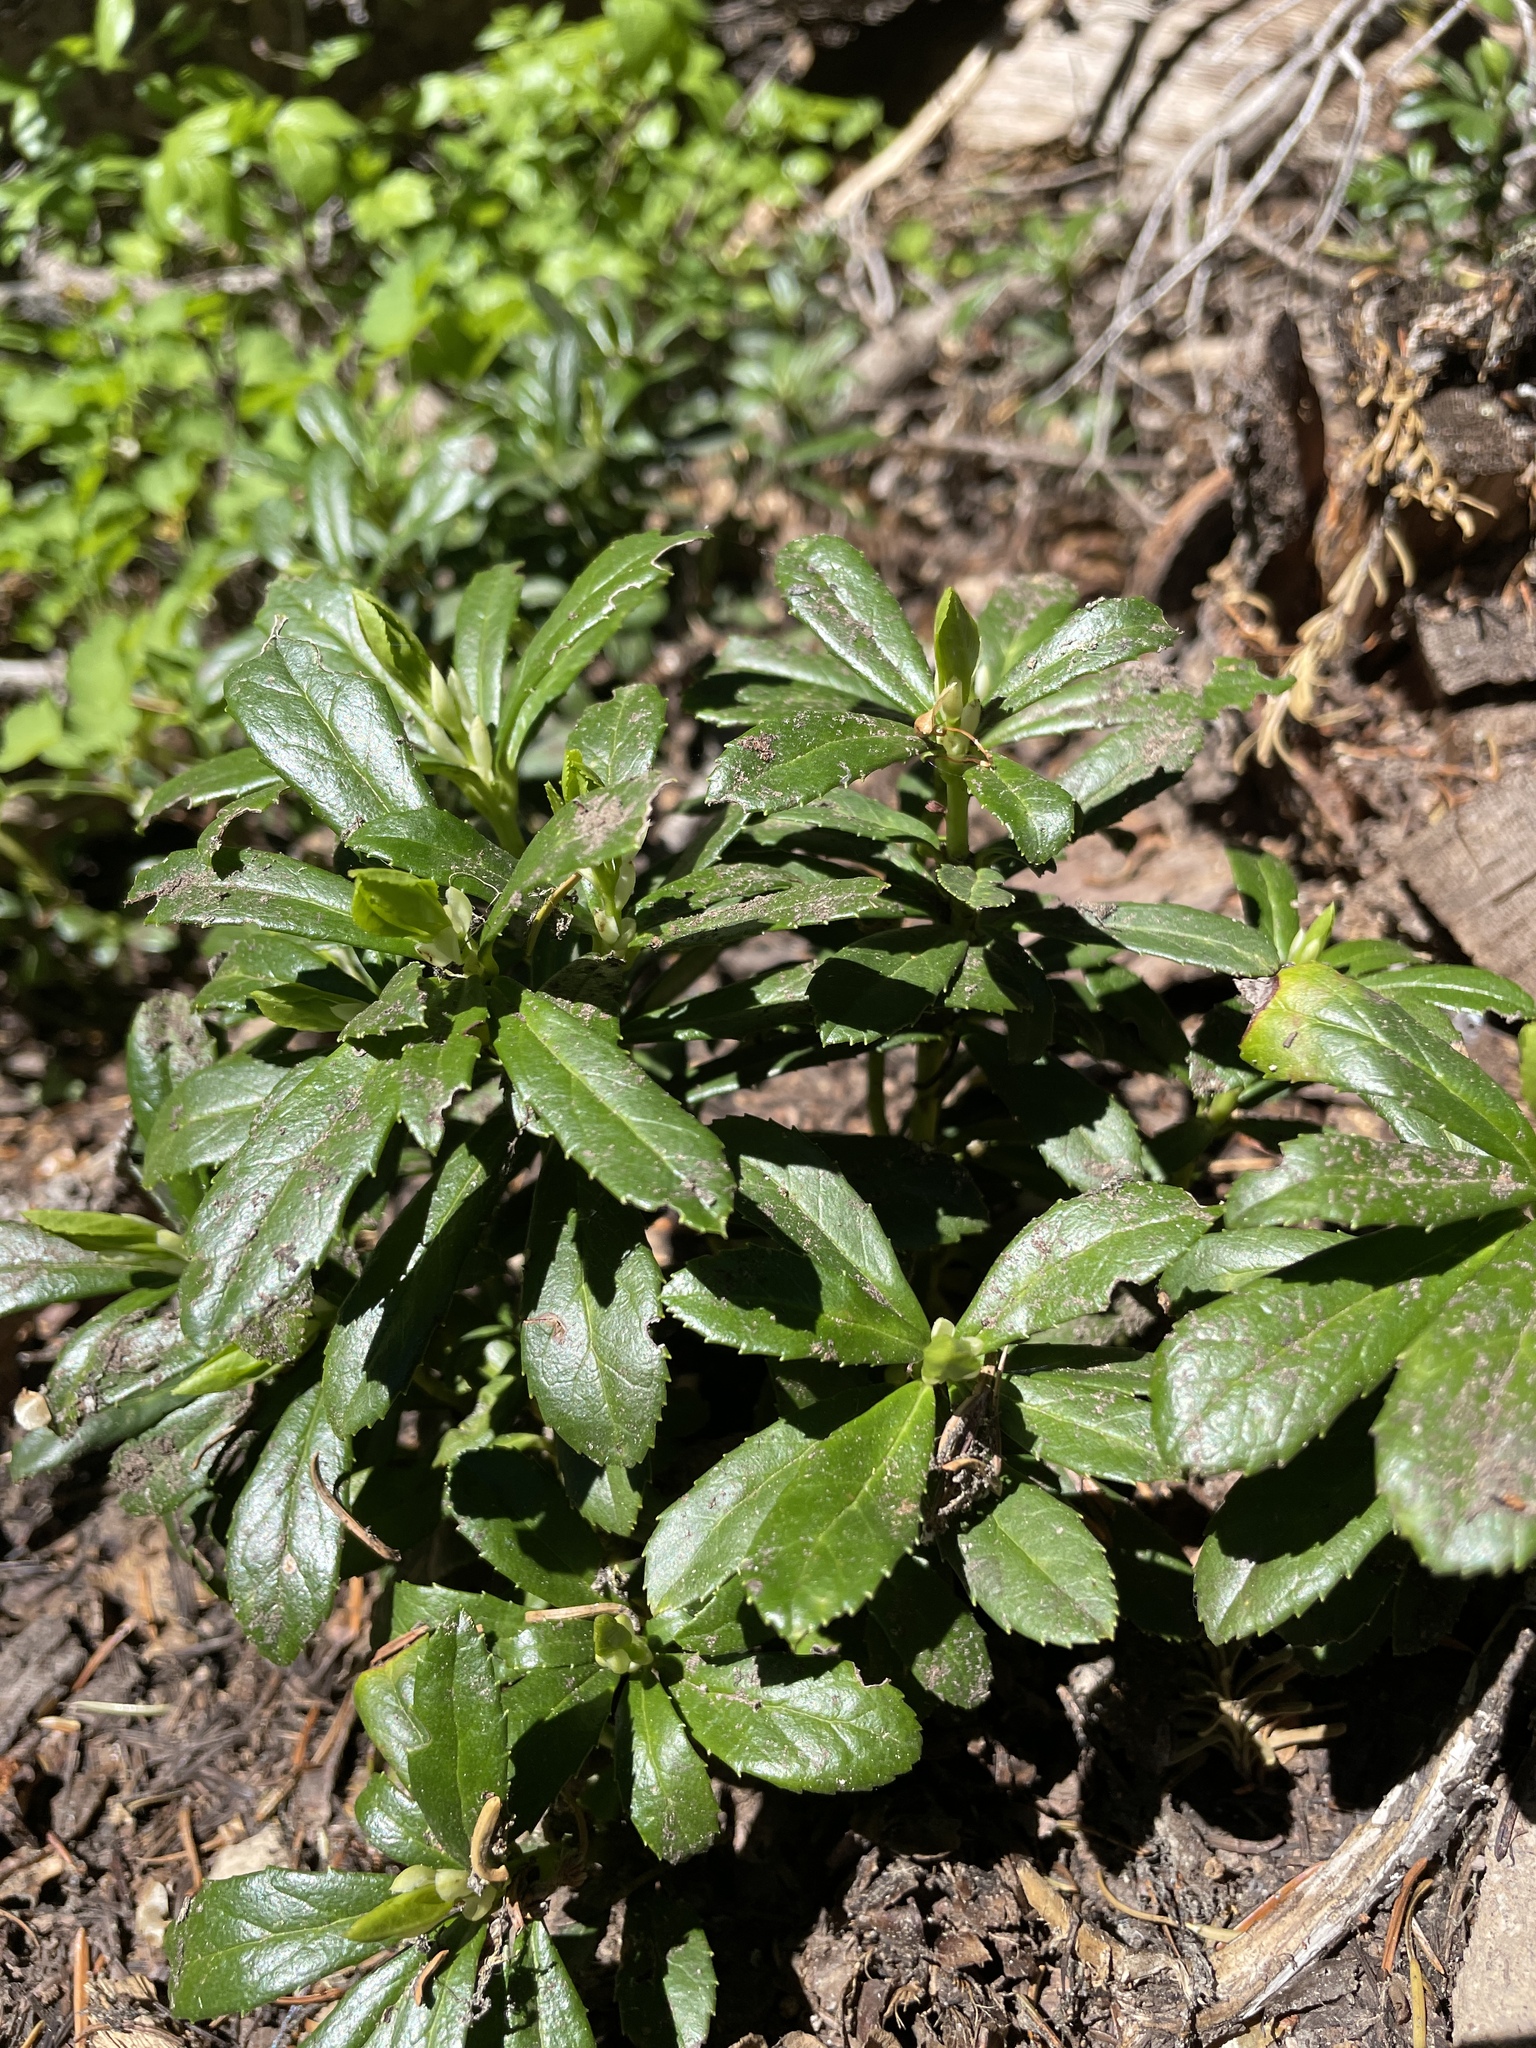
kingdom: Plantae
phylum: Tracheophyta
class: Magnoliopsida
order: Ericales
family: Ericaceae
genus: Chimaphila
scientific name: Chimaphila umbellata
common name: Pipsissewa
